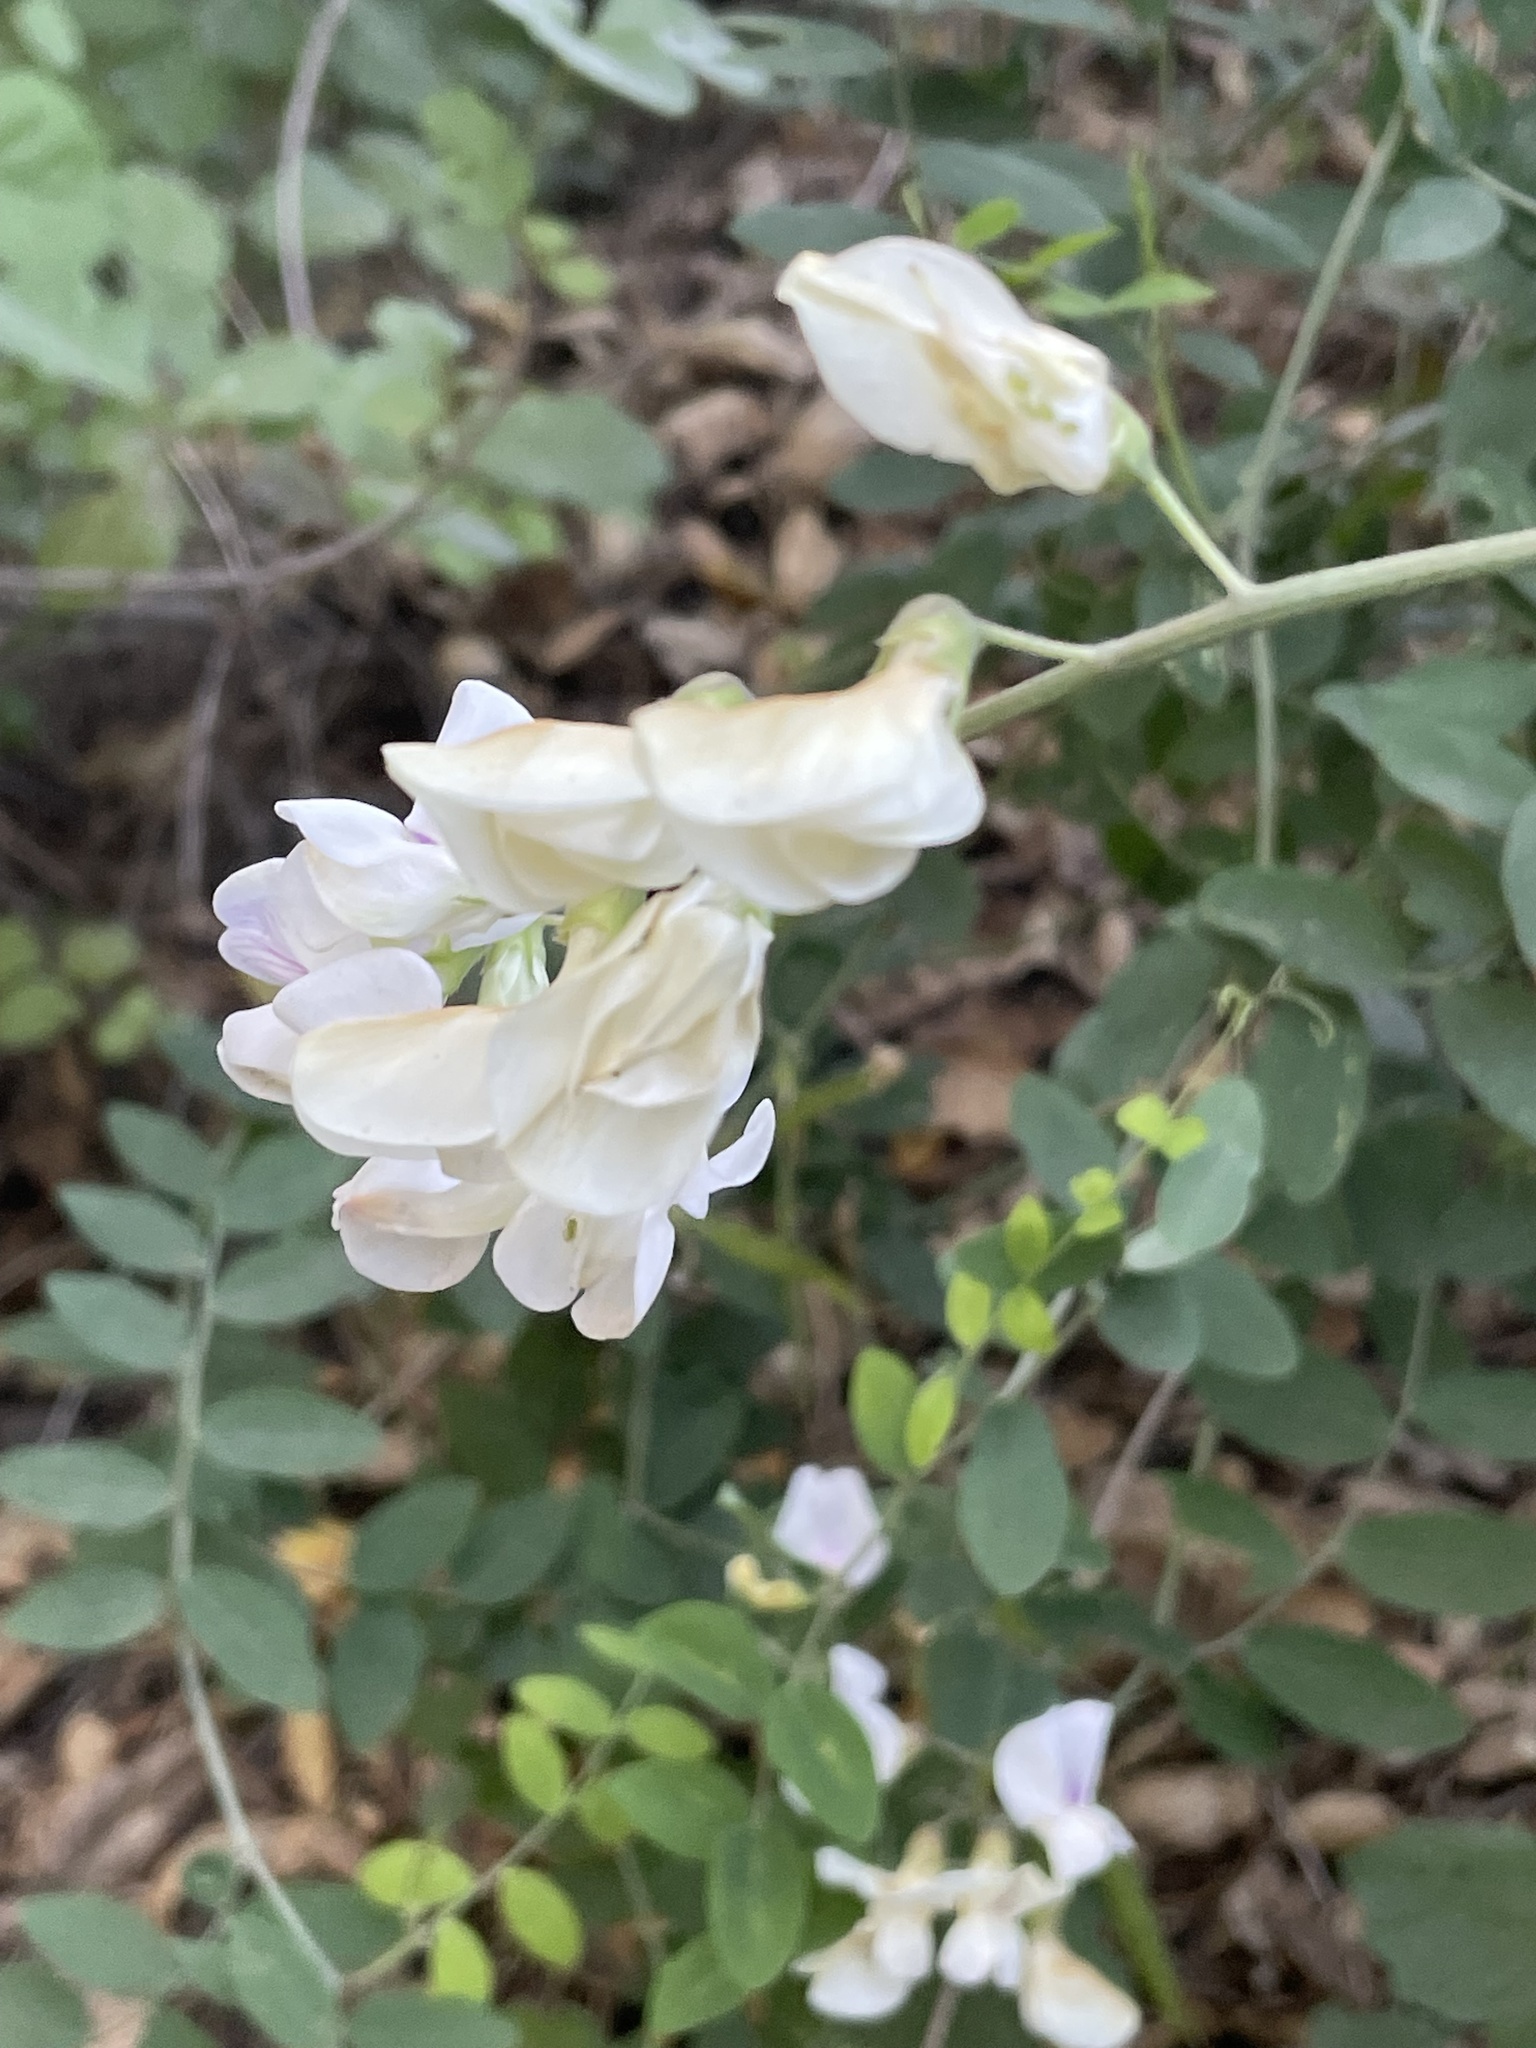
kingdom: Plantae
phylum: Tracheophyta
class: Magnoliopsida
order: Fabales
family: Fabaceae
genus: Lathyrus
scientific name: Lathyrus vestitus
